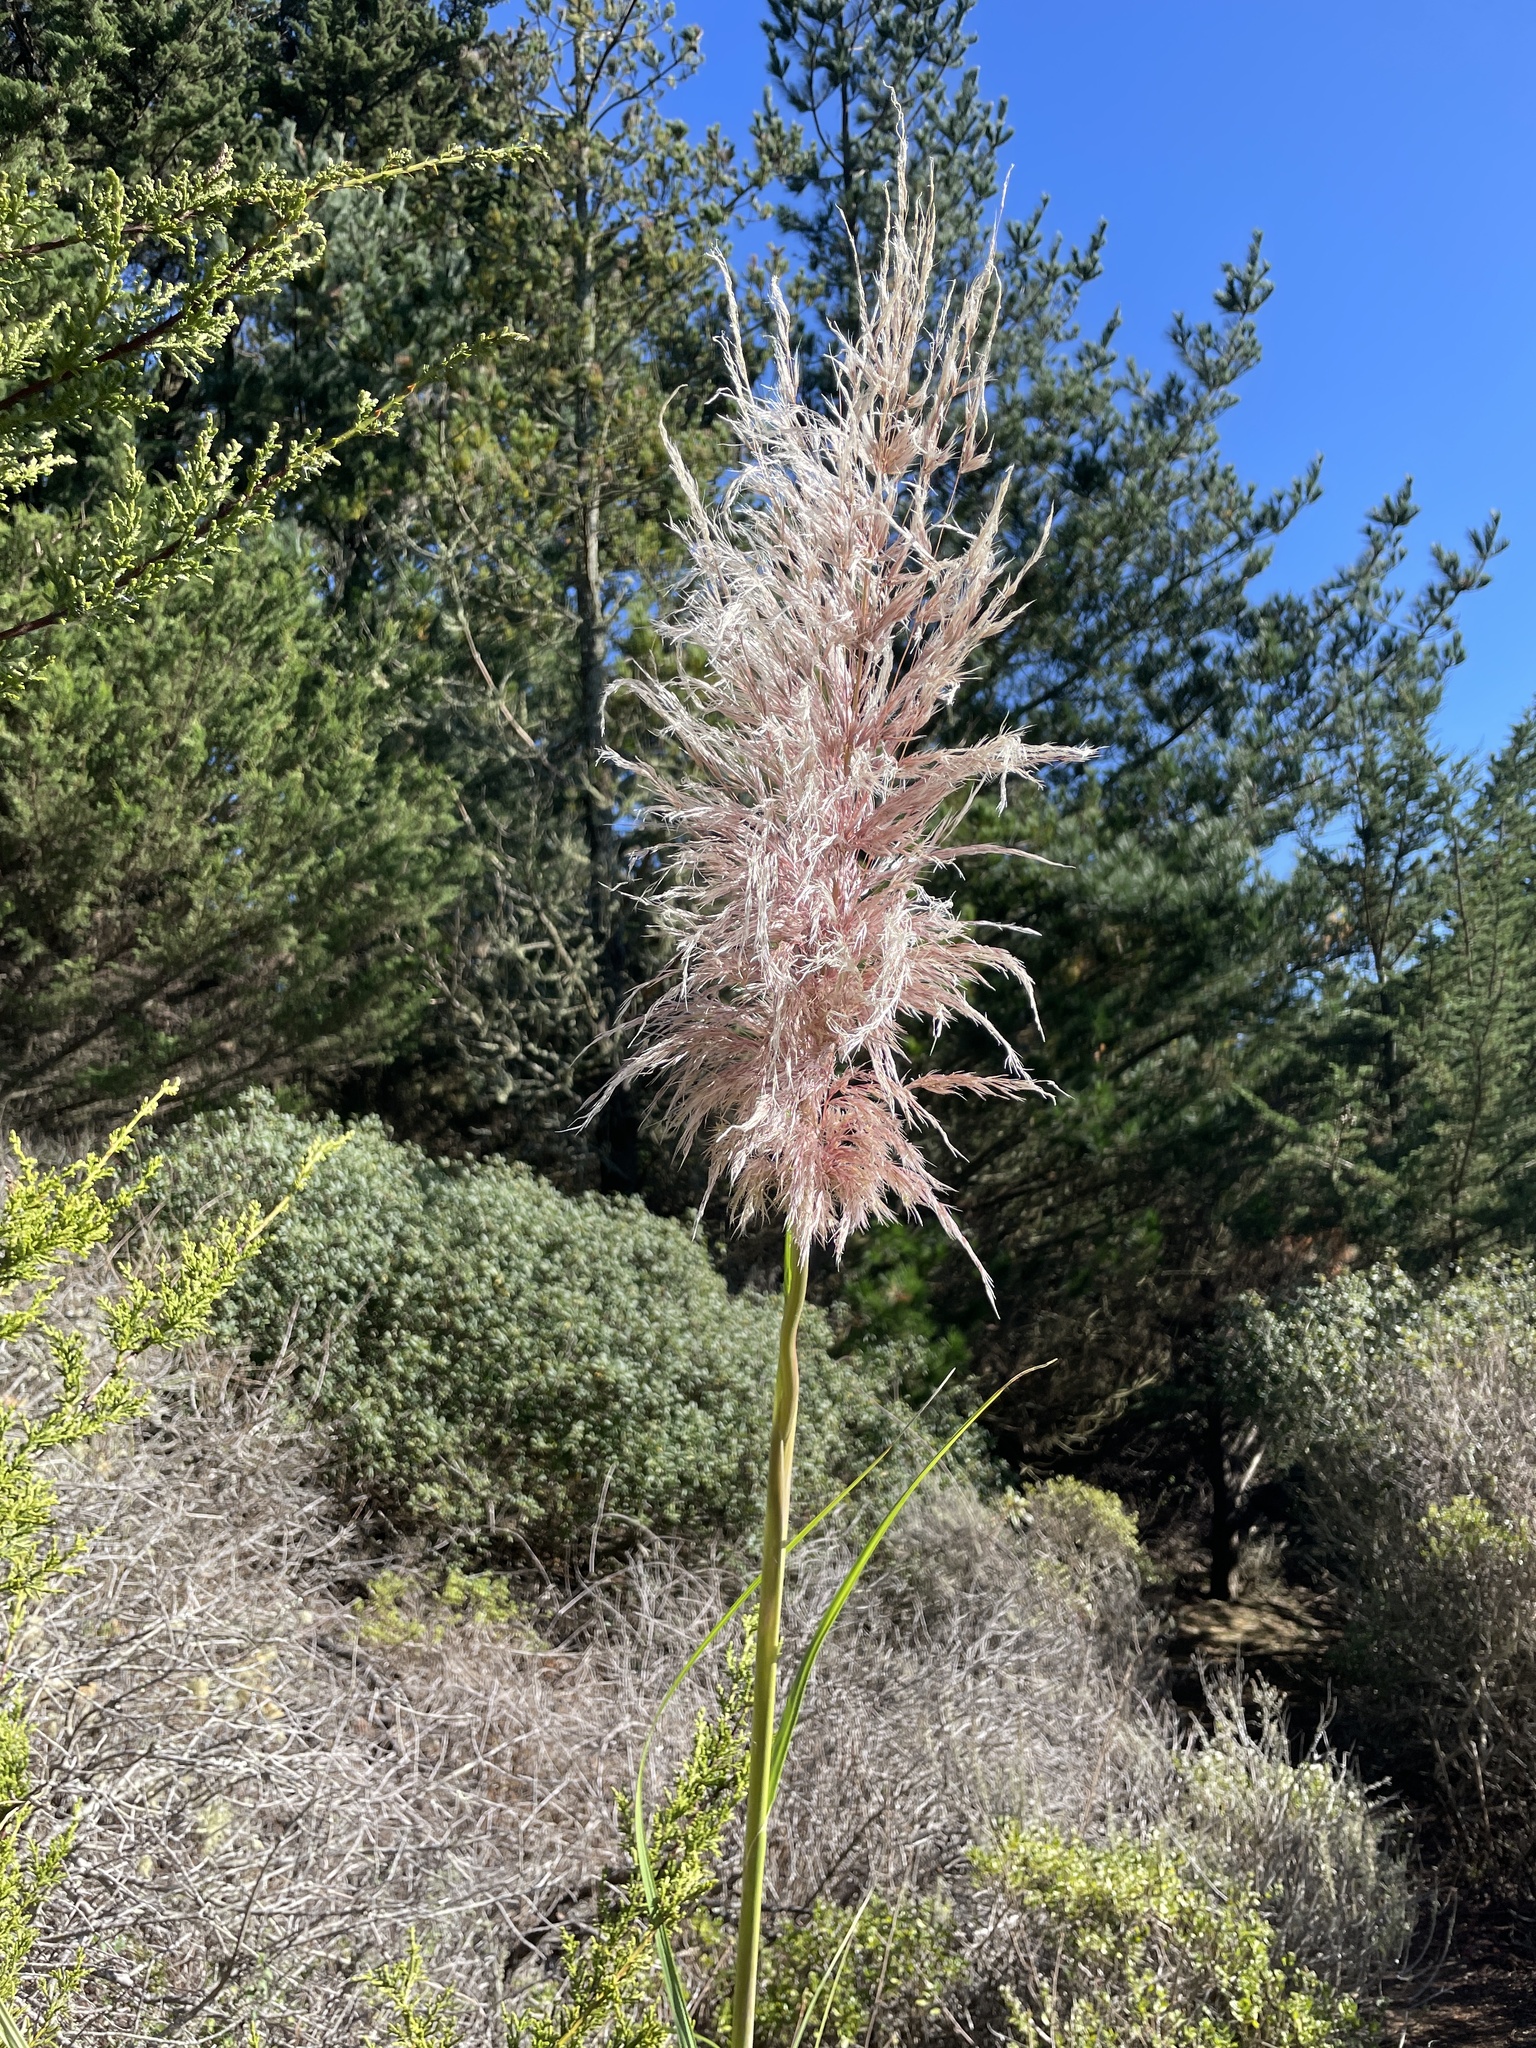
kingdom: Plantae
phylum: Tracheophyta
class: Liliopsida
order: Poales
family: Poaceae
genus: Cortaderia
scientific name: Cortaderia jubata
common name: Purple pampas grass
